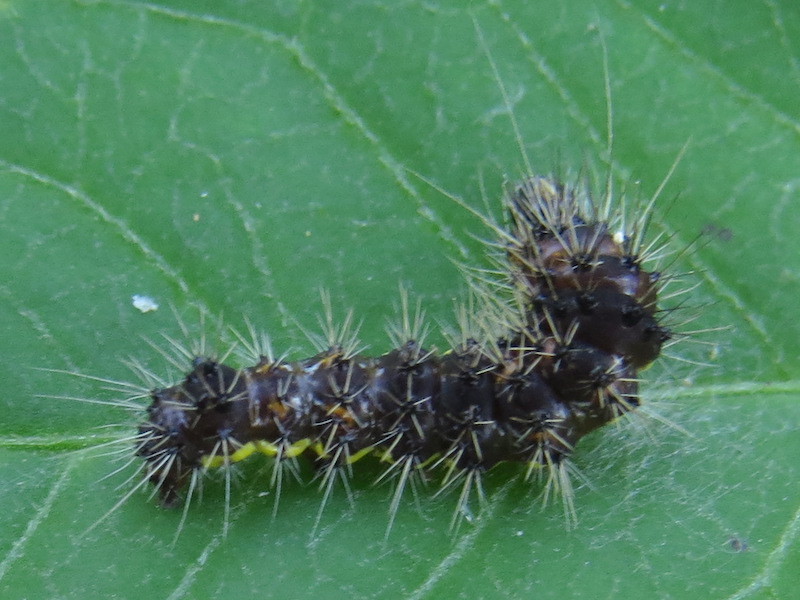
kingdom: Animalia
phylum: Arthropoda
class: Insecta
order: Lepidoptera
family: Noctuidae
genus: Acronicta
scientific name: Acronicta oblinita
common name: Smeared dagger
